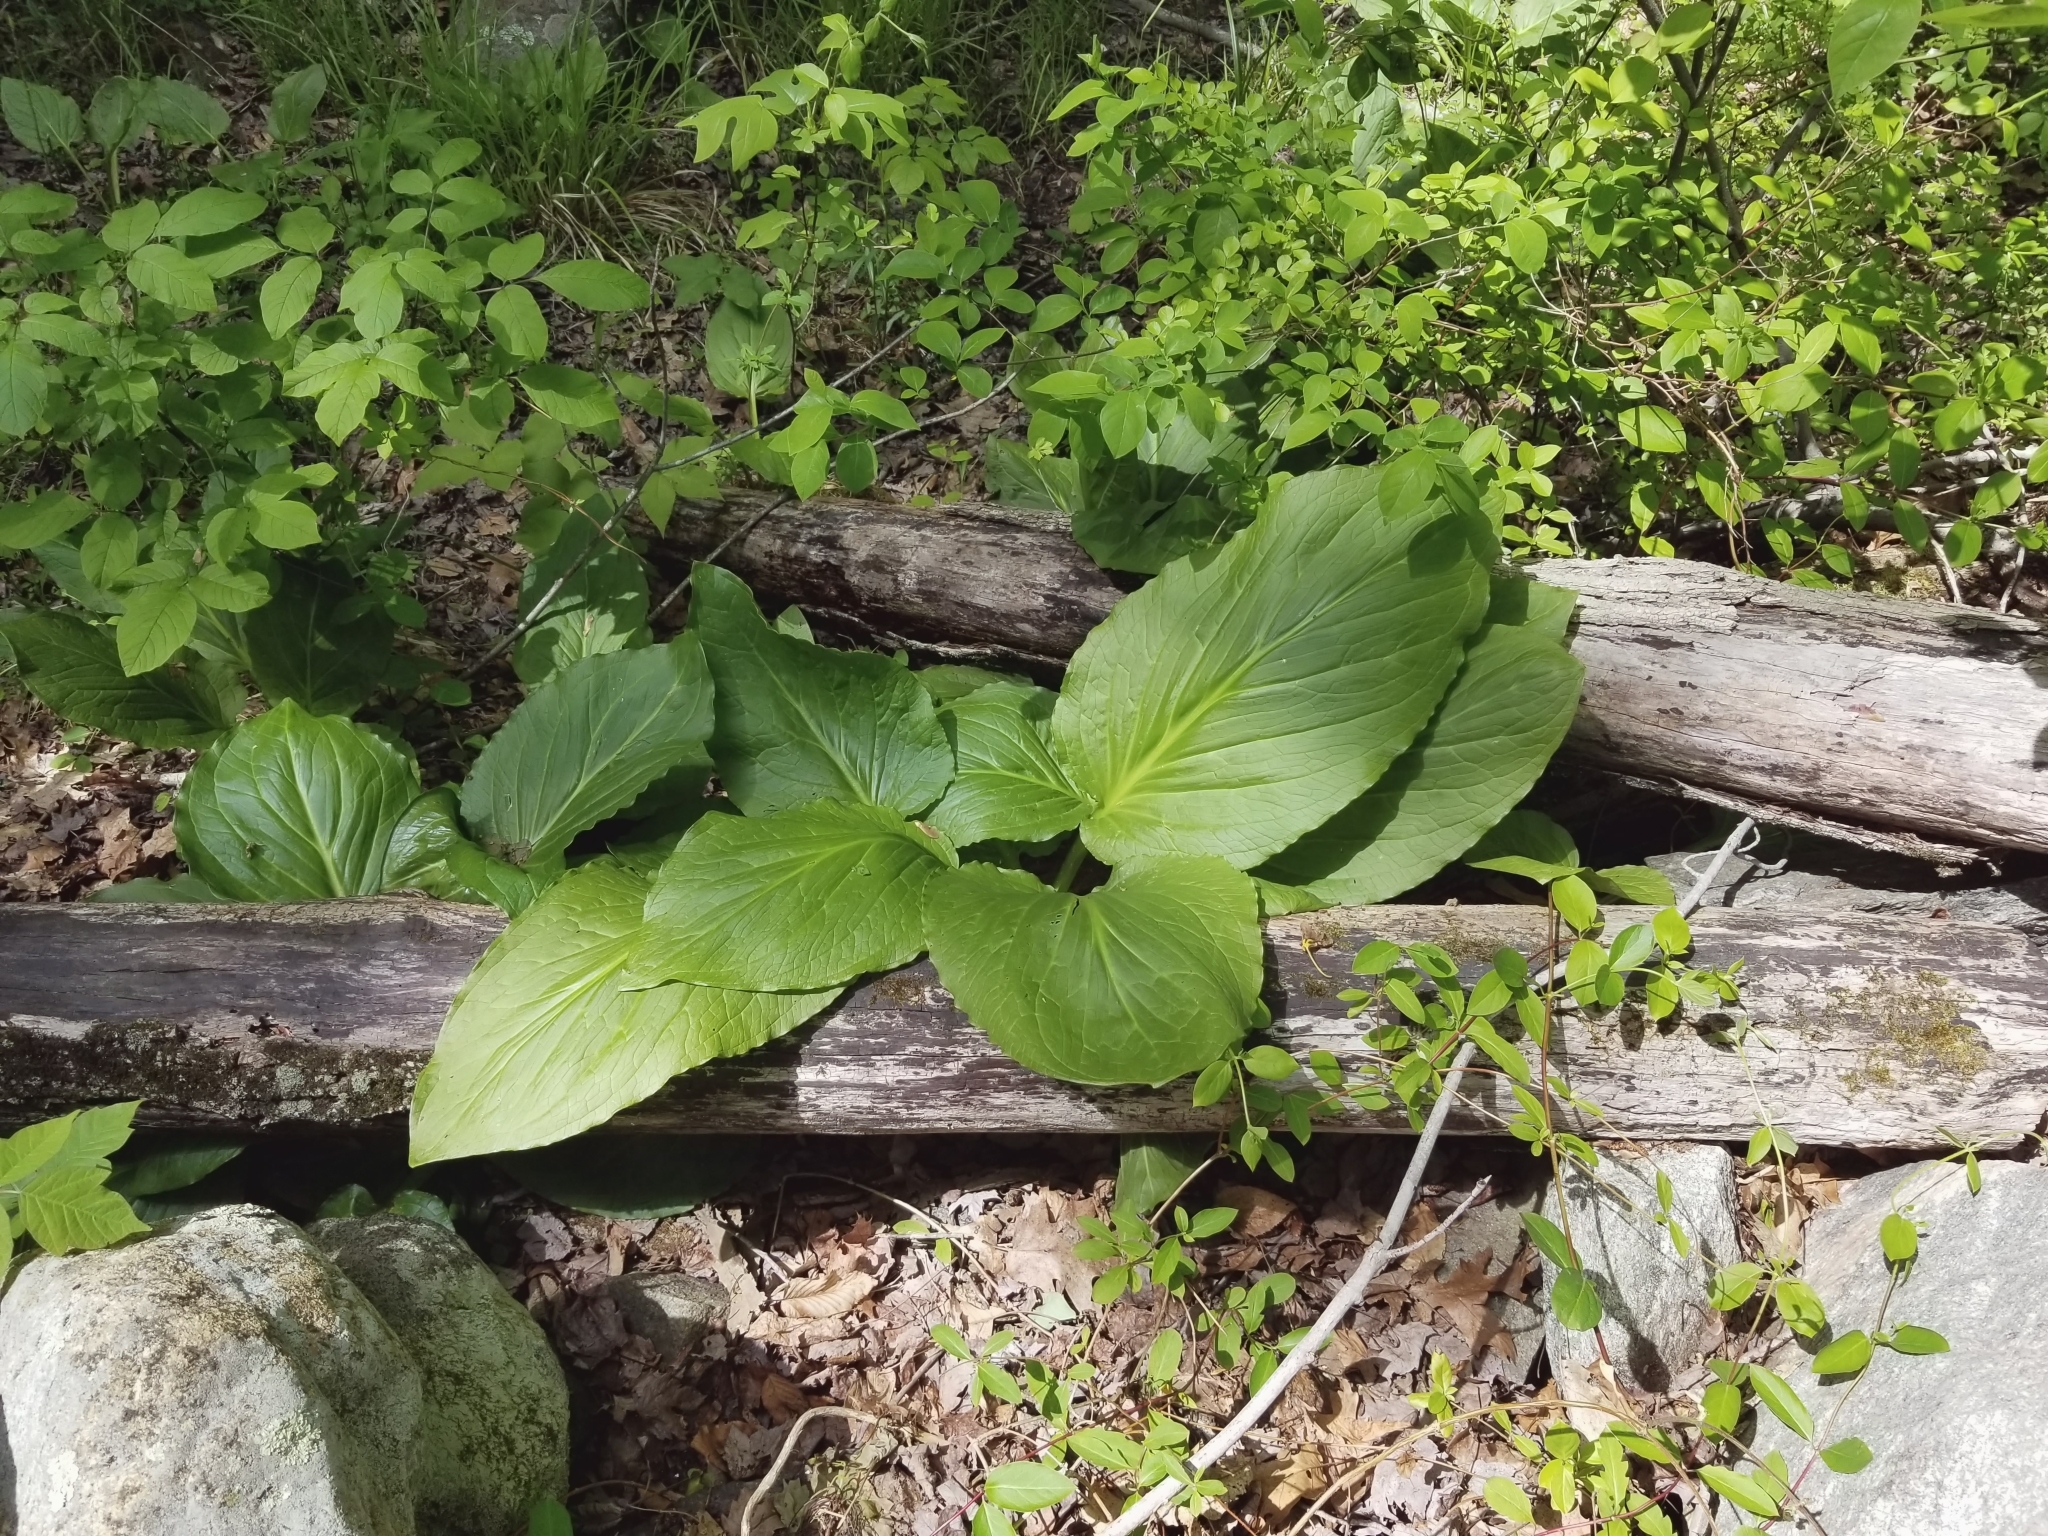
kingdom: Plantae
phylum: Tracheophyta
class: Liliopsida
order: Alismatales
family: Araceae
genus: Symplocarpus
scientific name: Symplocarpus foetidus
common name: Eastern skunk cabbage
